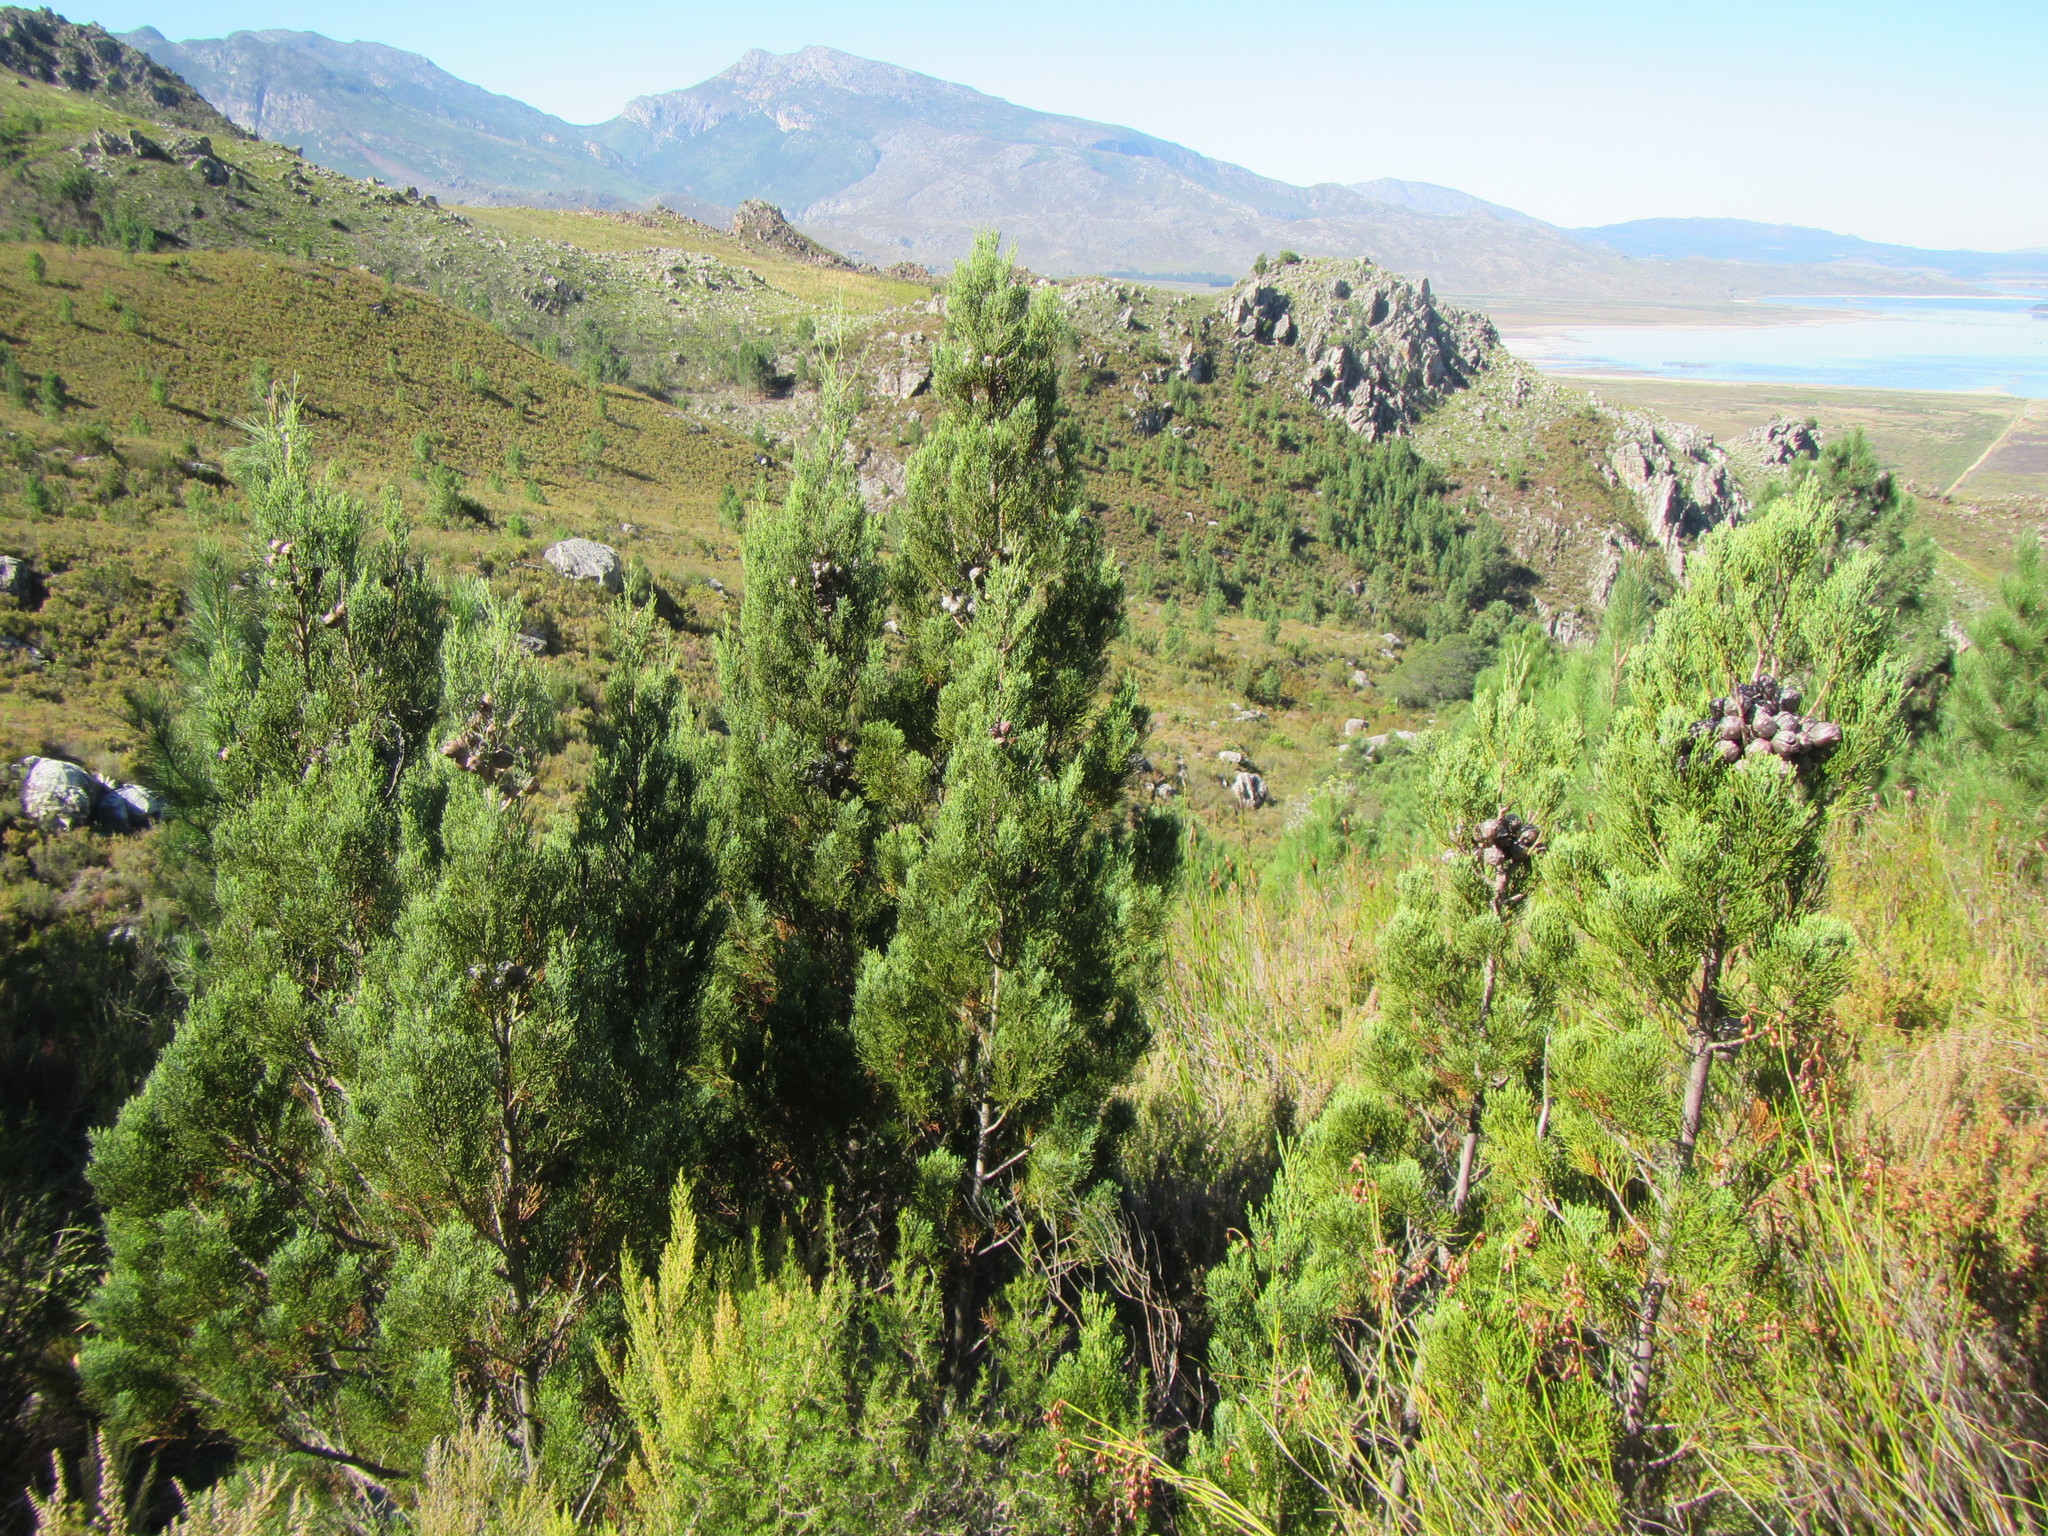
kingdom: Plantae
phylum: Tracheophyta
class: Pinopsida
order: Pinales
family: Cupressaceae
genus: Widdringtonia
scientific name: Widdringtonia nodiflora
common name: Cape cypress
